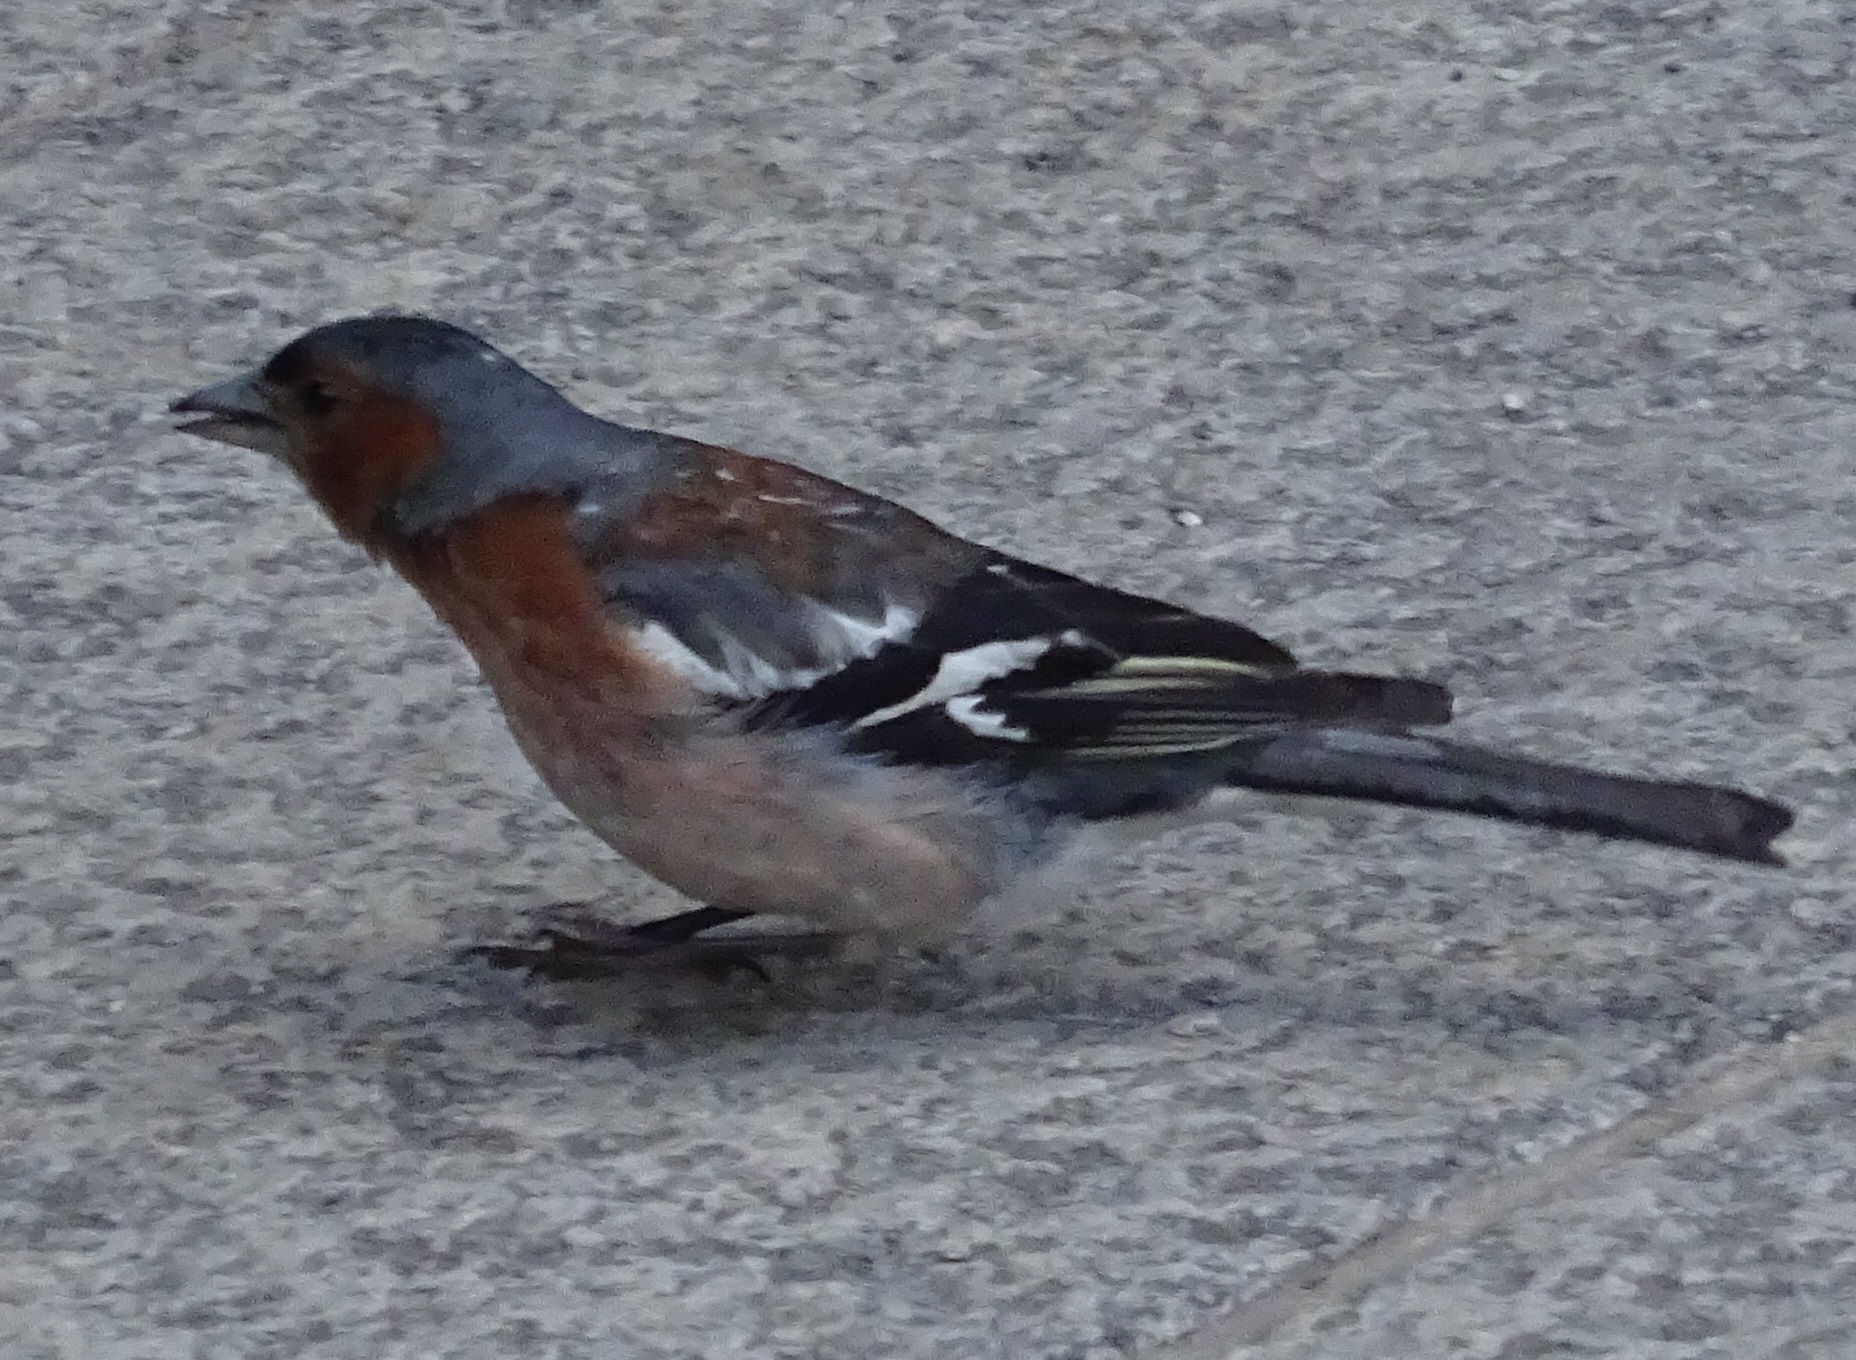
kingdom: Animalia
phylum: Chordata
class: Aves
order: Passeriformes
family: Fringillidae
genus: Fringilla
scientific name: Fringilla coelebs
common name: Common chaffinch
